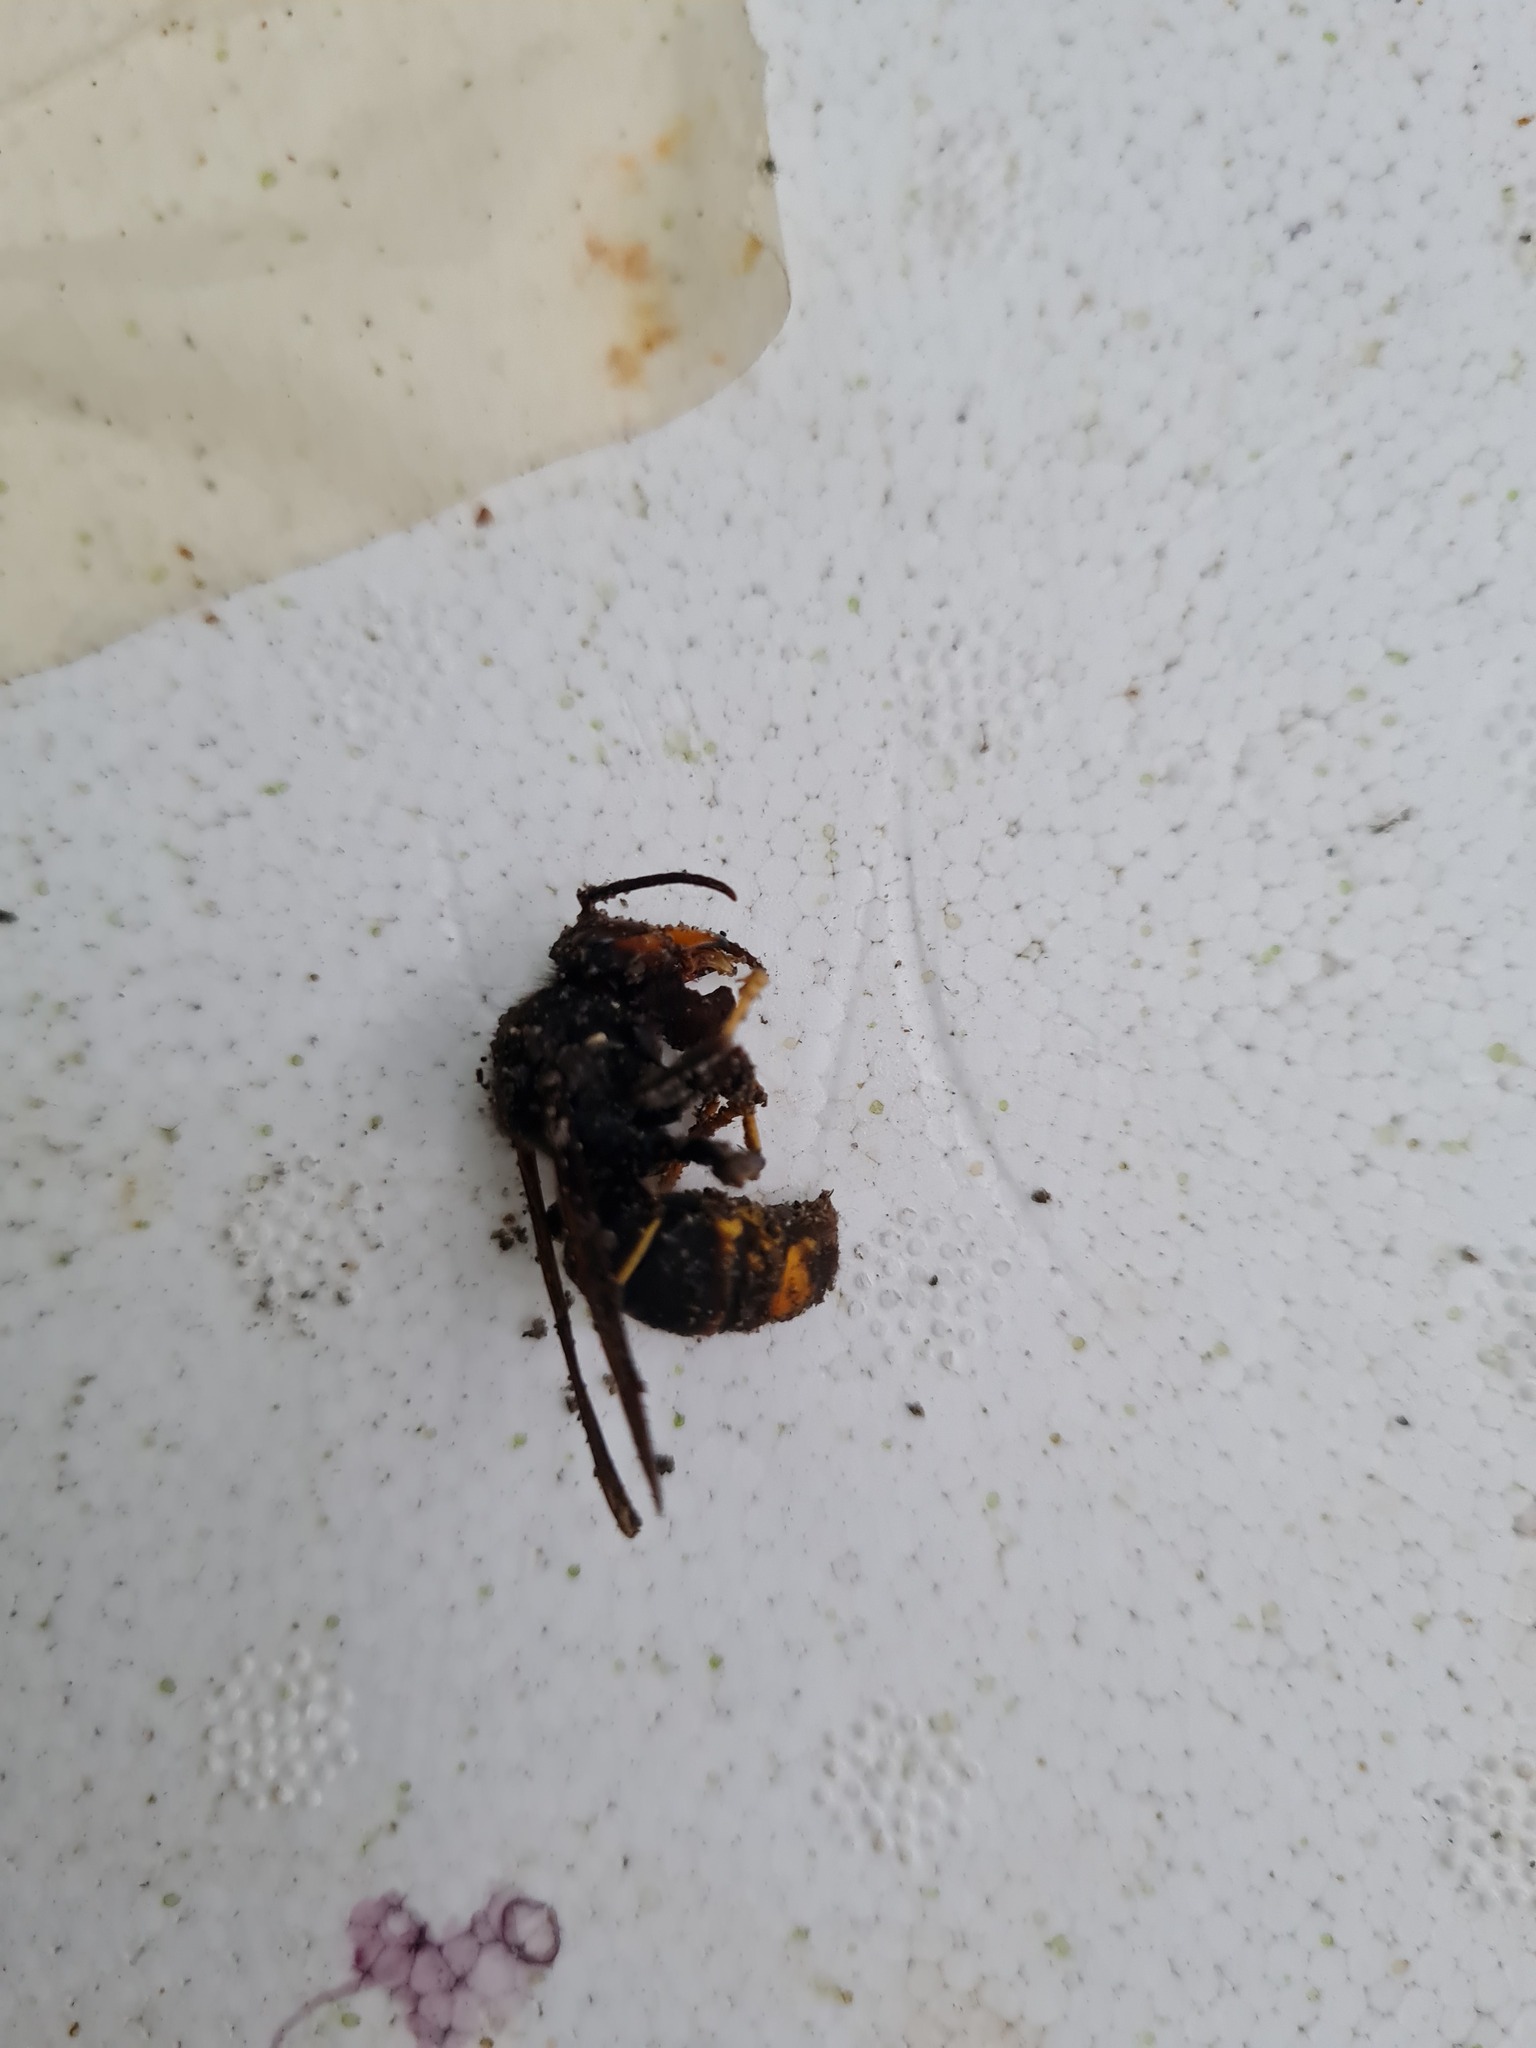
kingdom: Animalia
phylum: Arthropoda
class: Insecta
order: Hymenoptera
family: Vespidae
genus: Vespa
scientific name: Vespa velutina
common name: Asian hornet
